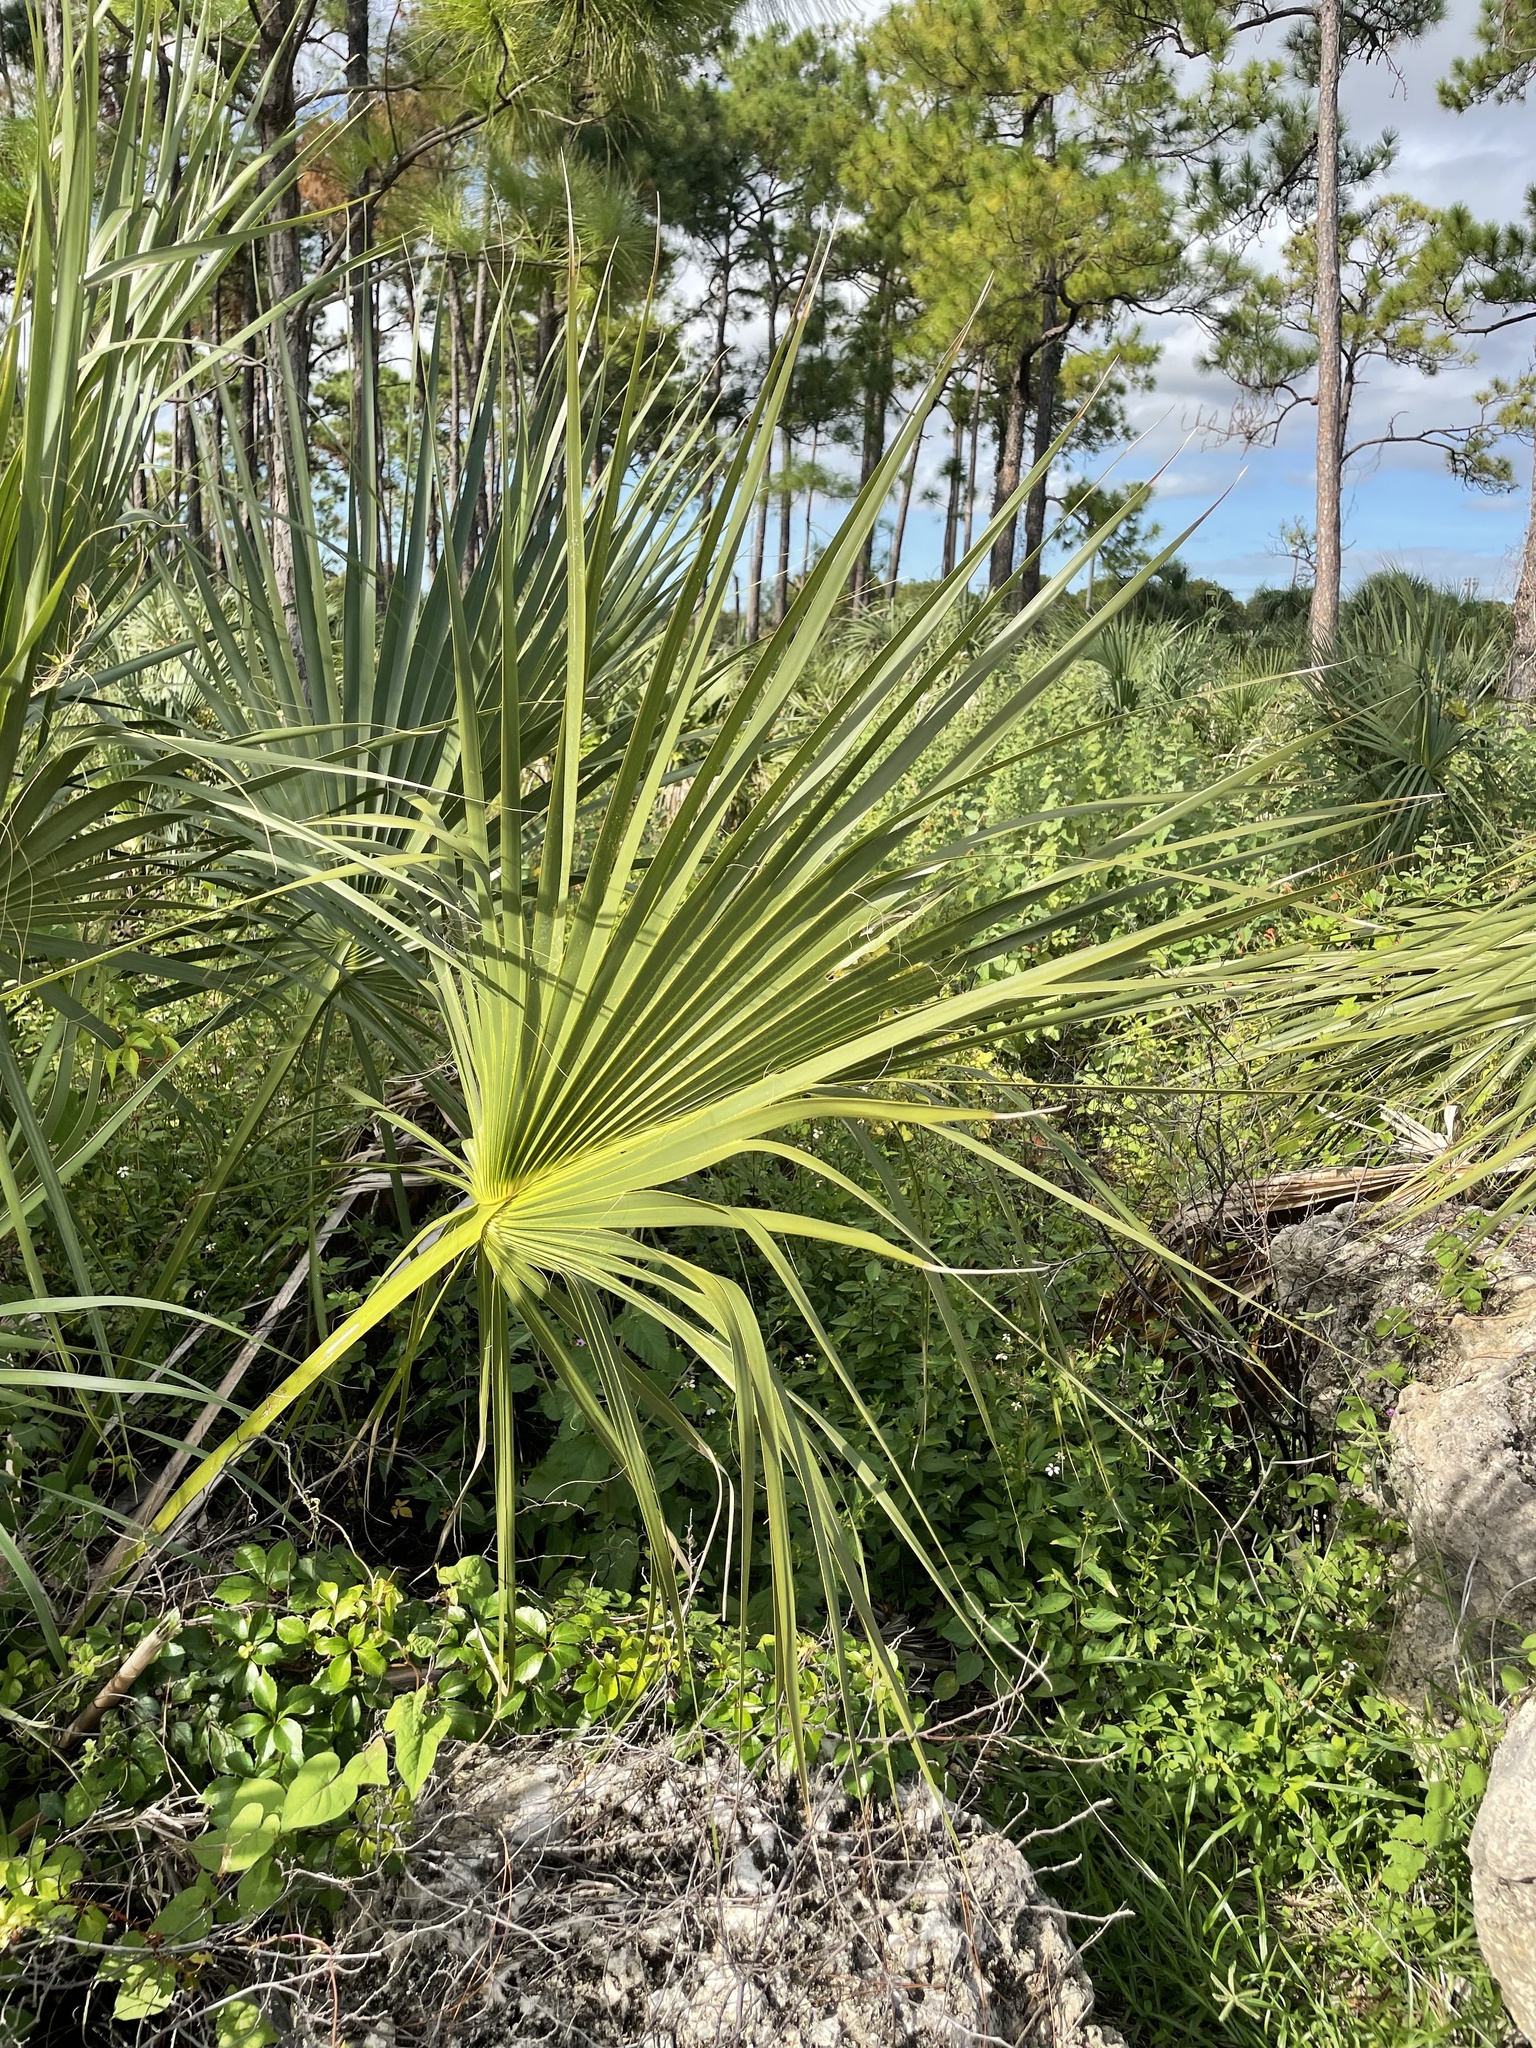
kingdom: Plantae
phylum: Tracheophyta
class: Liliopsida
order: Arecales
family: Arecaceae
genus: Sabal
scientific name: Sabal palmetto
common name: Blue palmetto
